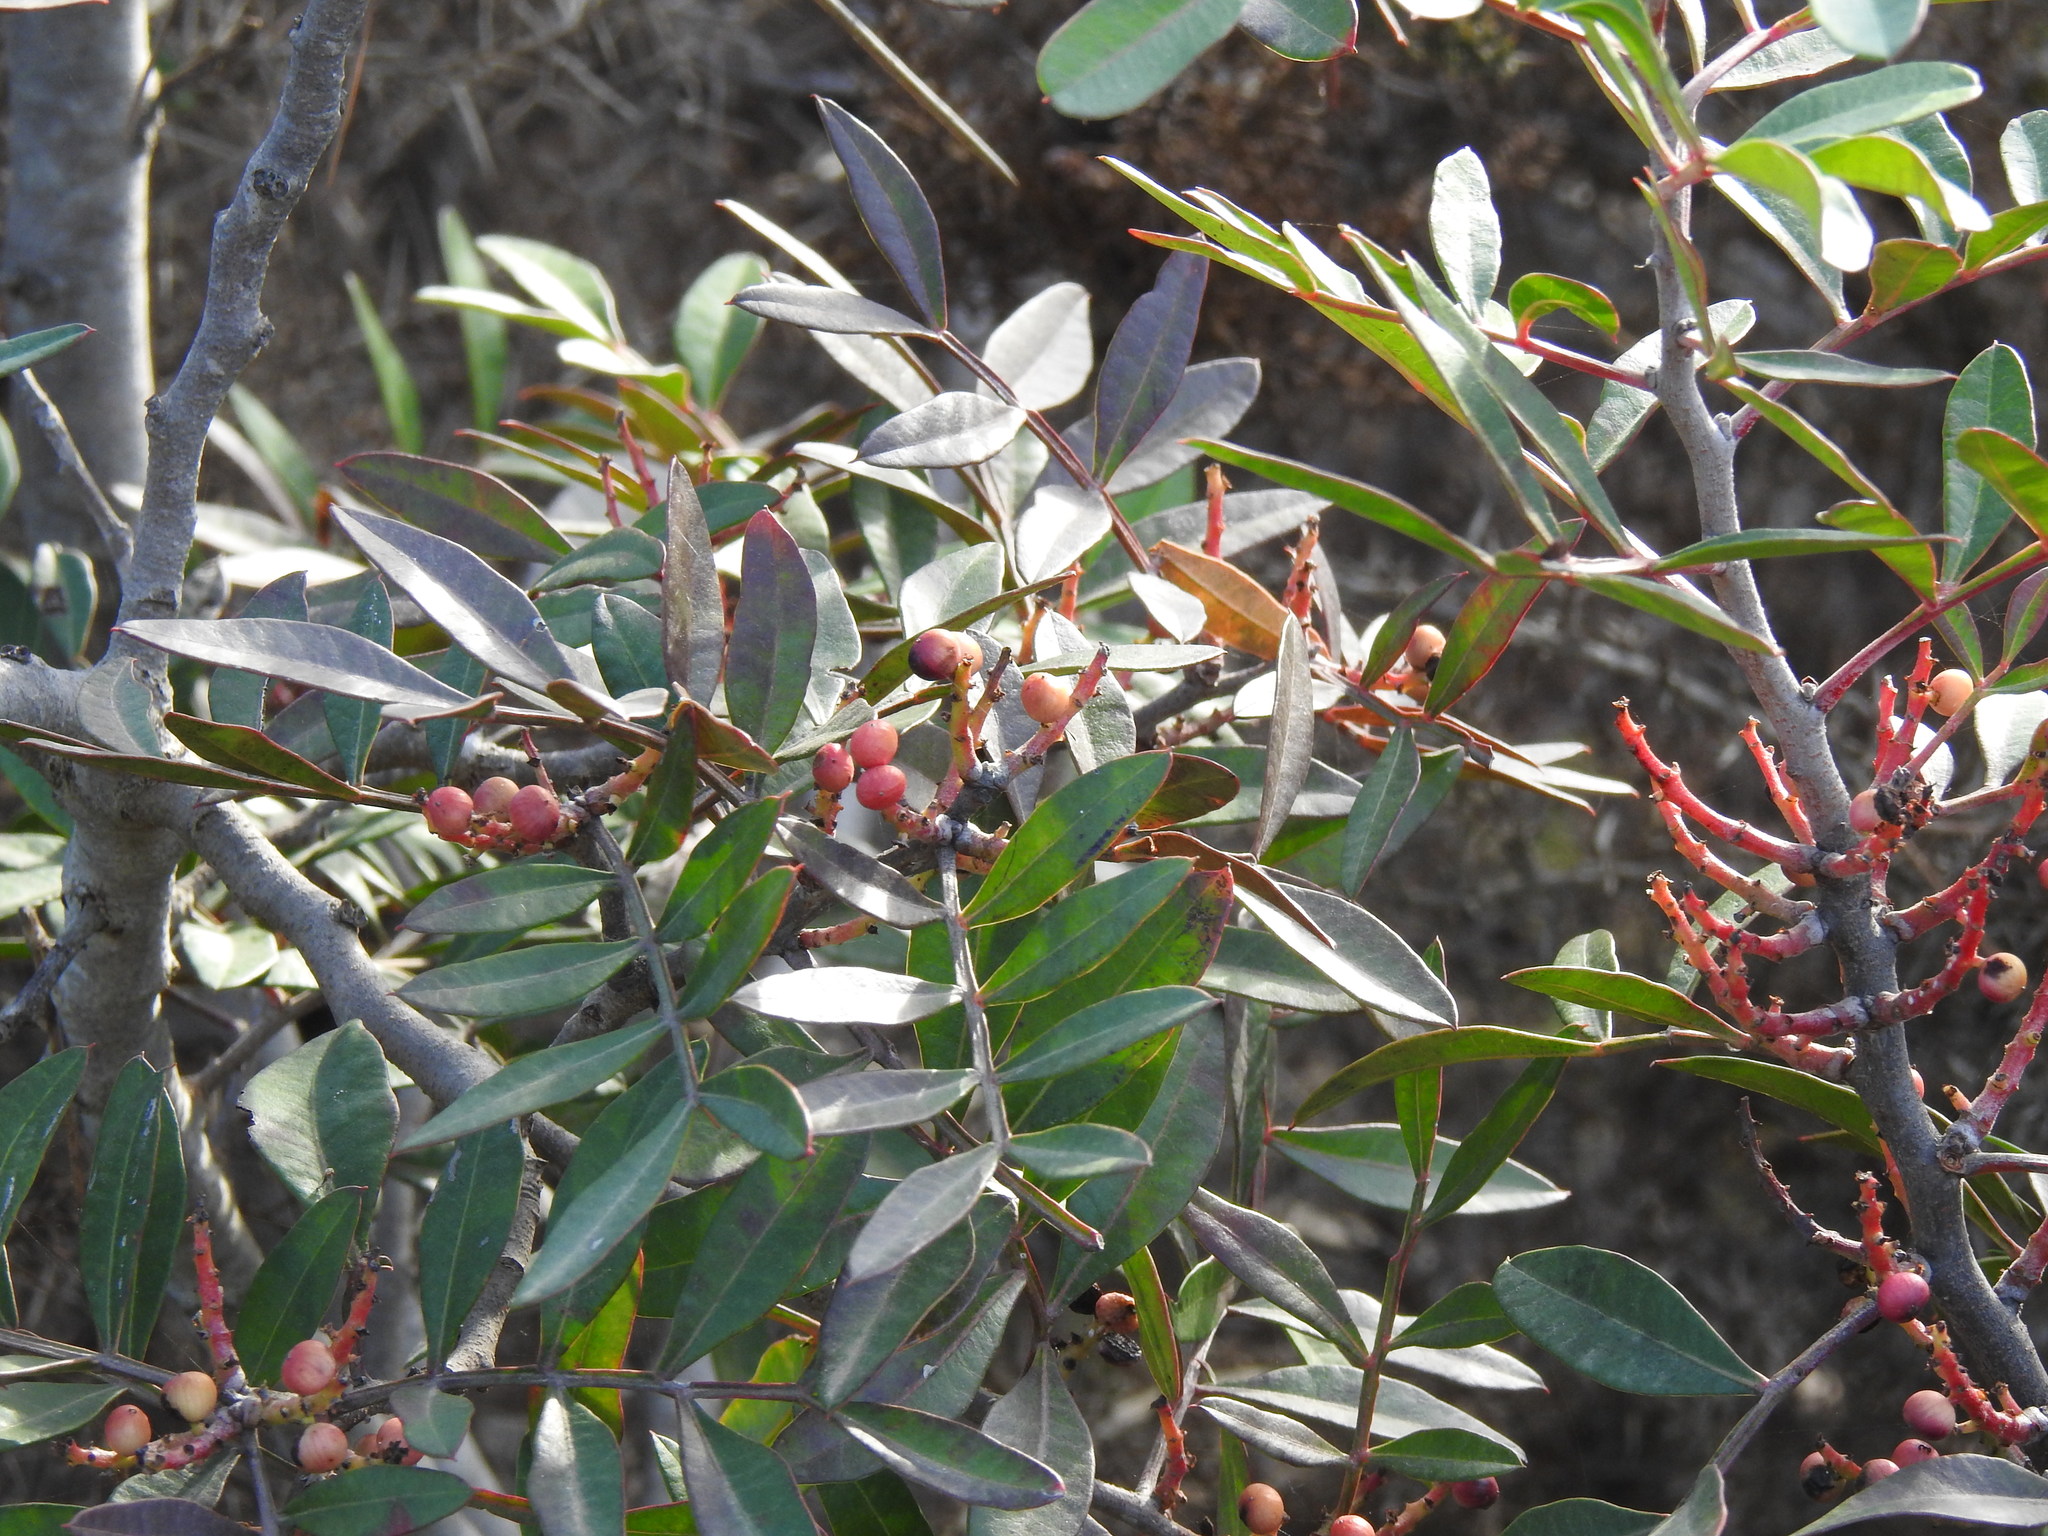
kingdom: Plantae
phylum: Tracheophyta
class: Magnoliopsida
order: Sapindales
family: Anacardiaceae
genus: Pistacia
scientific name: Pistacia lentiscus
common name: Lentisk
